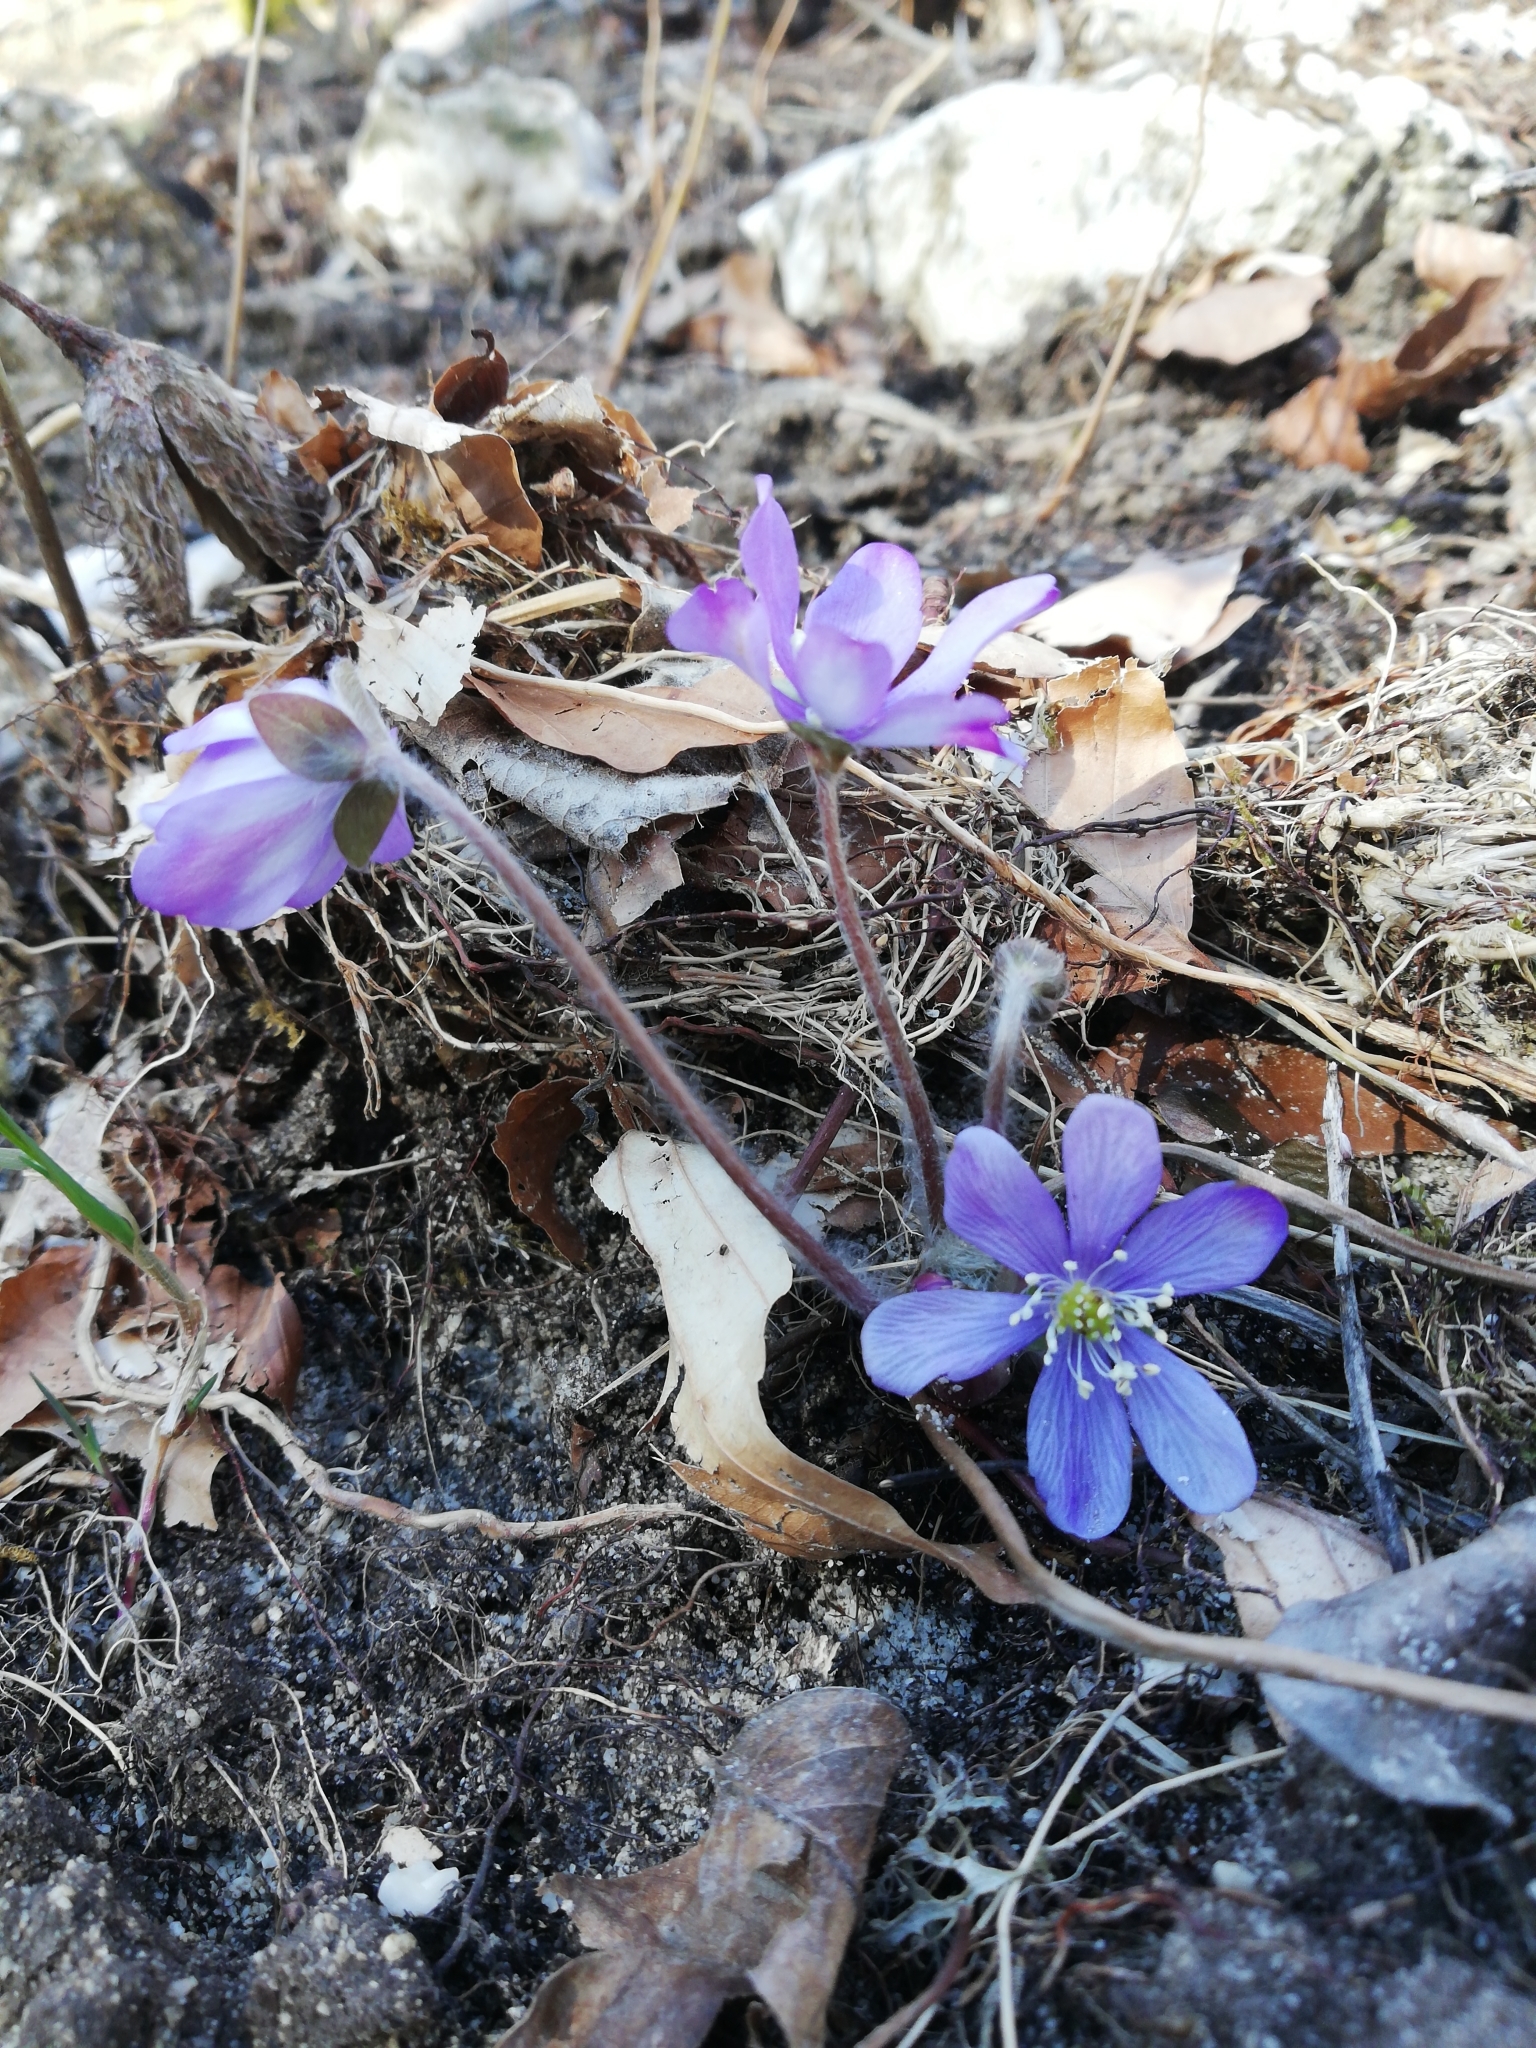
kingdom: Plantae
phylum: Tracheophyta
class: Magnoliopsida
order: Ranunculales
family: Ranunculaceae
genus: Hepatica
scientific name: Hepatica nobilis
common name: Liverleaf
